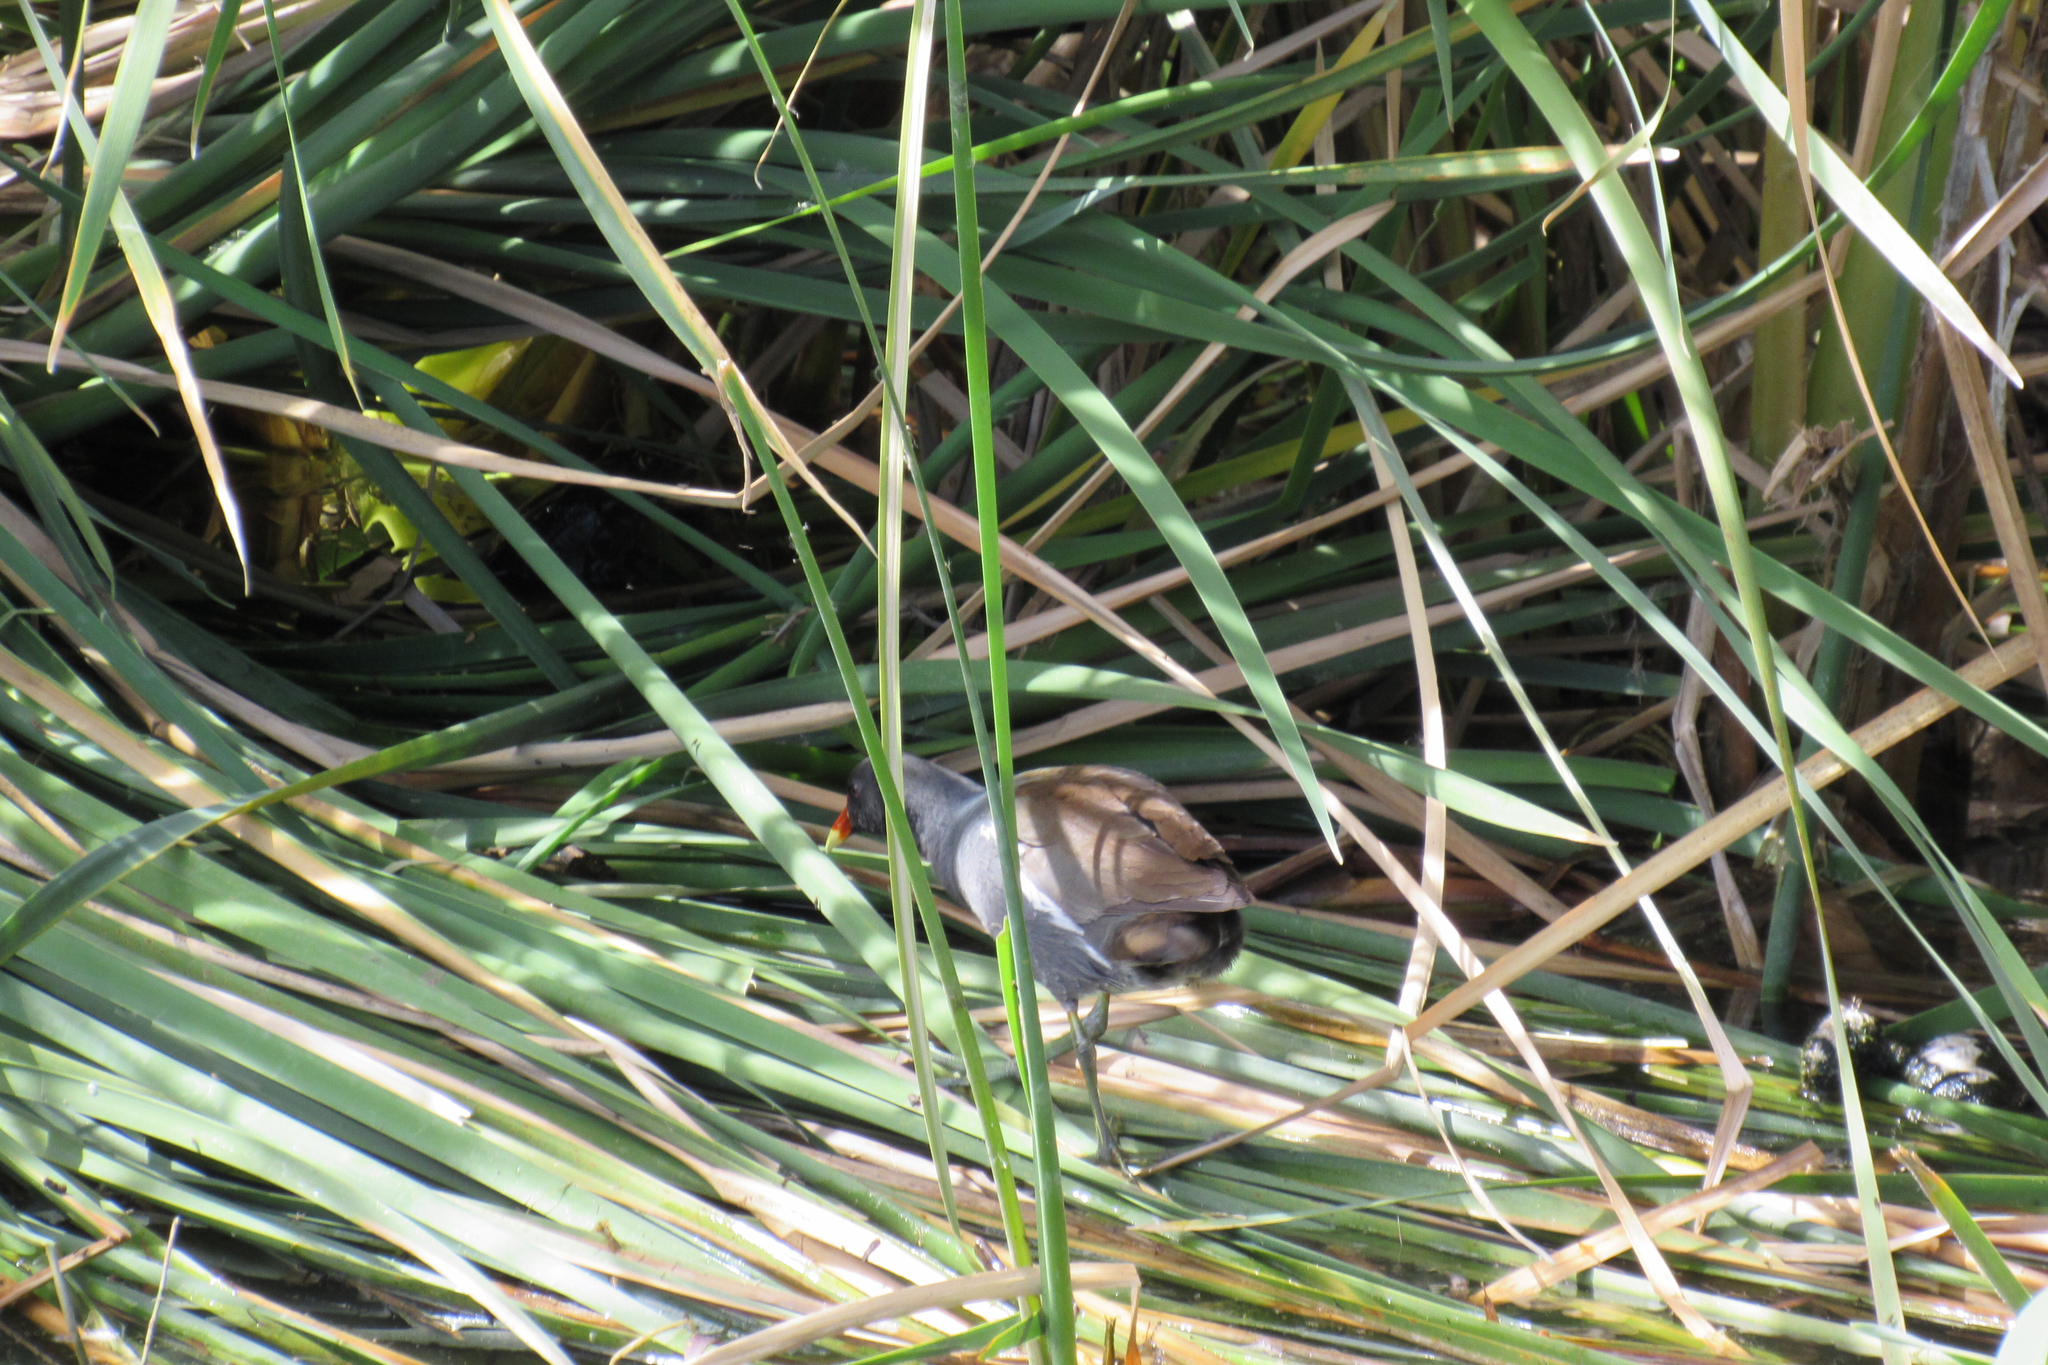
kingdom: Animalia
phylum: Chordata
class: Aves
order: Gruiformes
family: Rallidae
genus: Gallinula
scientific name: Gallinula chloropus
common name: Common moorhen
